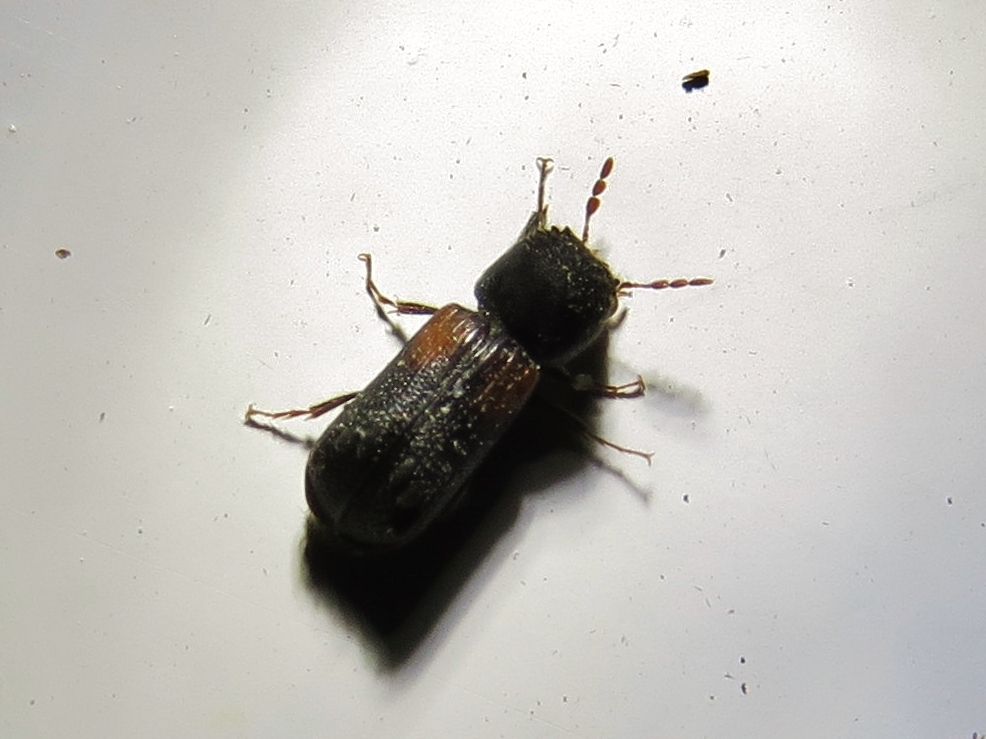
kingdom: Animalia
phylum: Arthropoda
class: Insecta
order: Coleoptera
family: Bostrichidae
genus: Xylobiops
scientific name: Xylobiops basilaris
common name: Red-shouldered bostrichid
